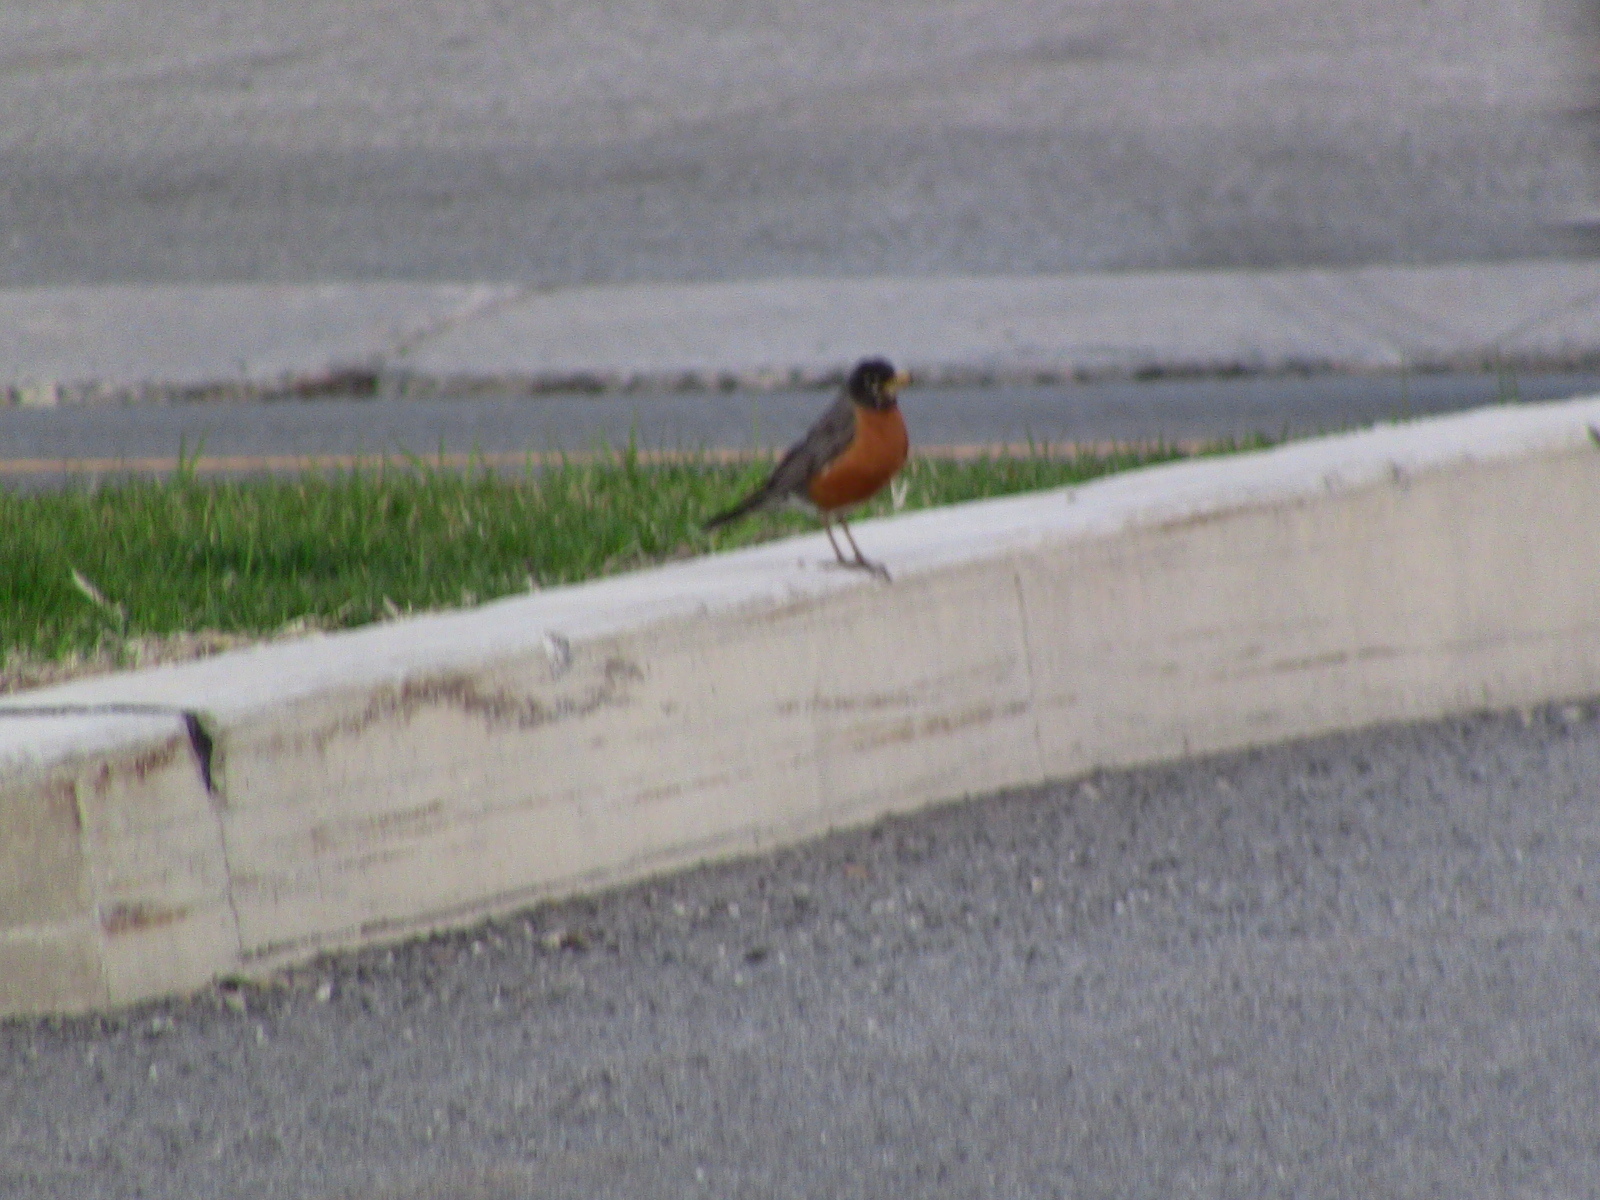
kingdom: Animalia
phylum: Chordata
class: Aves
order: Passeriformes
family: Turdidae
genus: Turdus
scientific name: Turdus migratorius
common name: American robin
